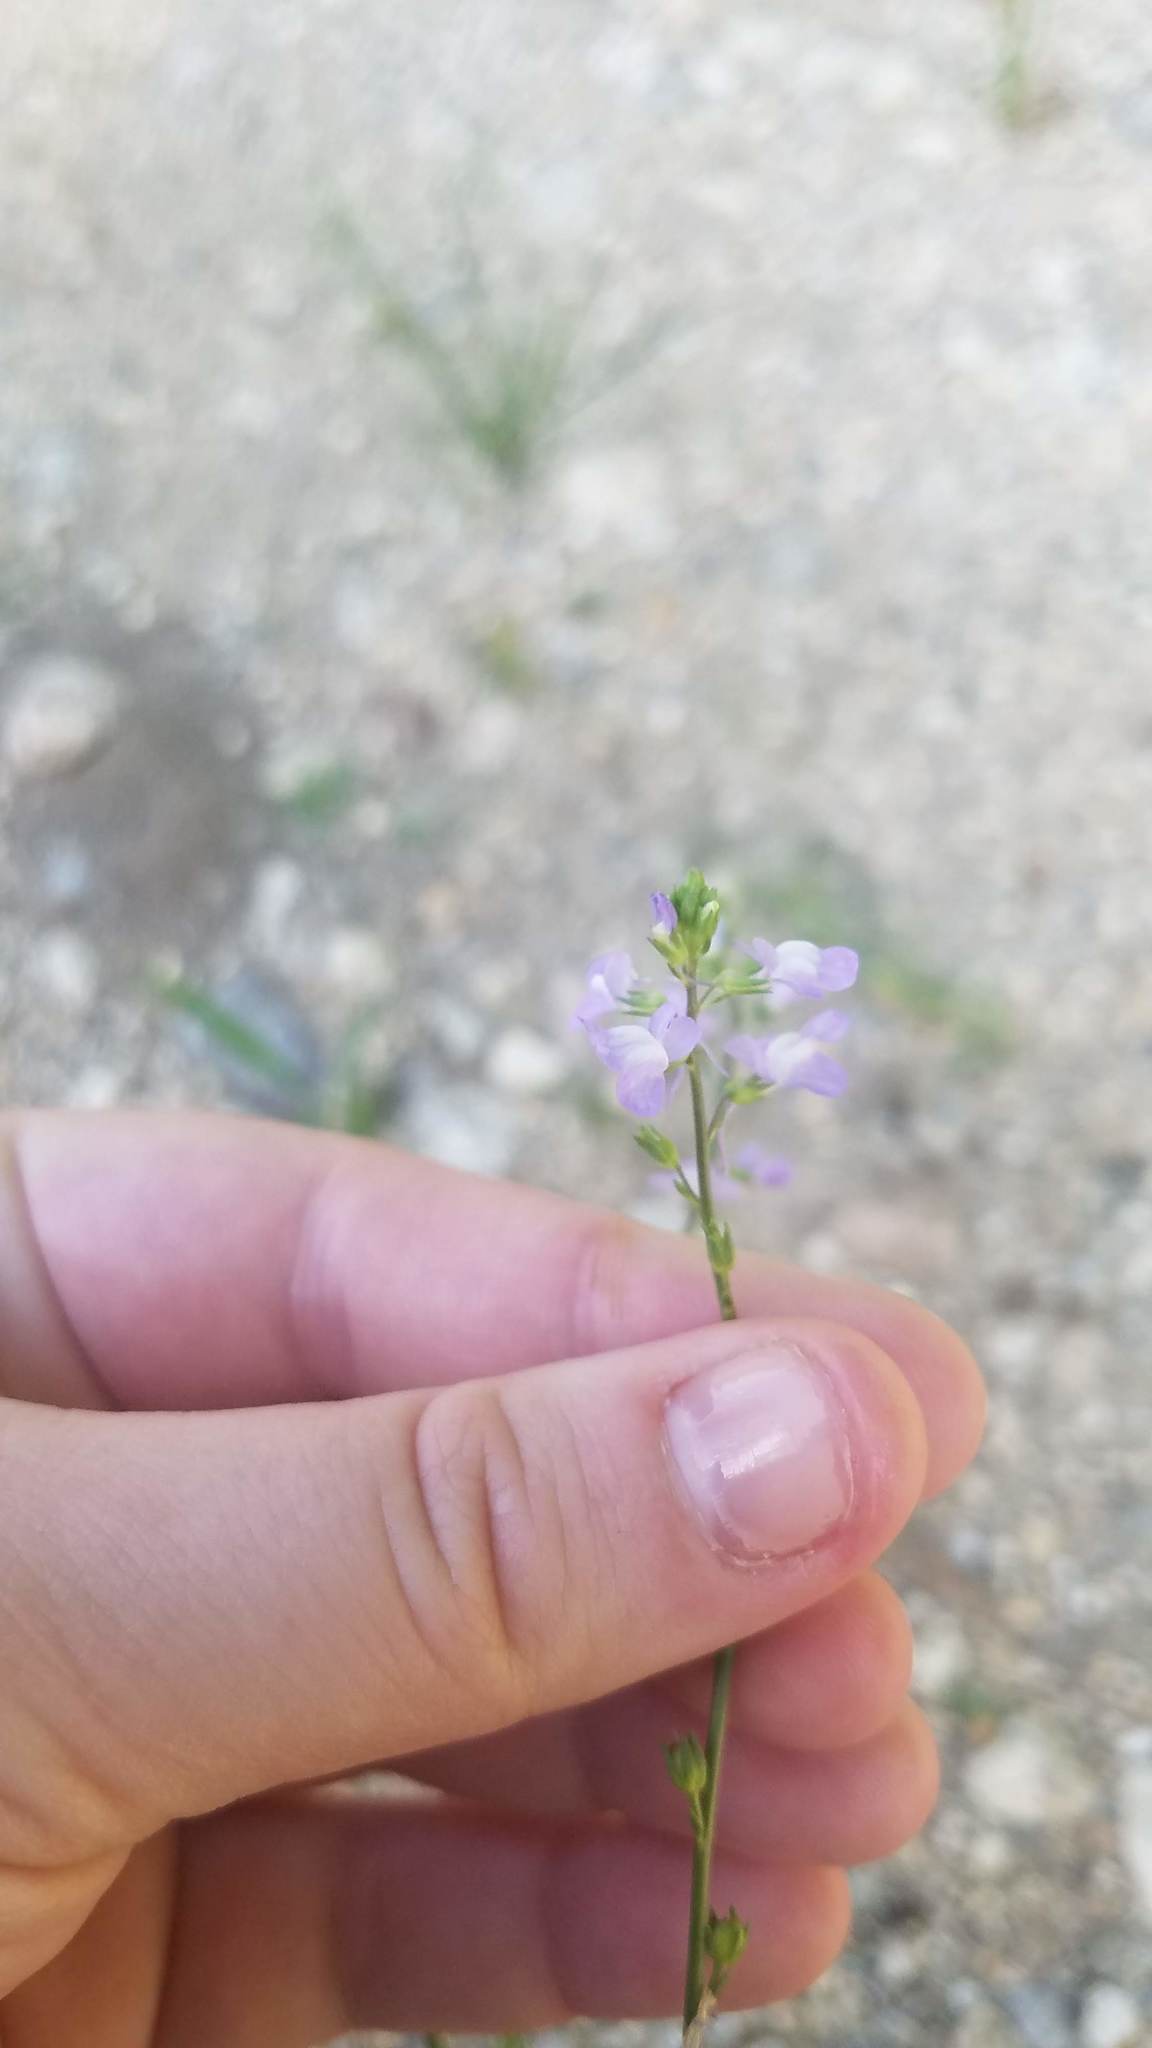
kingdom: Plantae
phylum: Tracheophyta
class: Magnoliopsida
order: Lamiales
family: Plantaginaceae
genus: Nuttallanthus
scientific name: Nuttallanthus canadensis
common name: Blue toadflax
